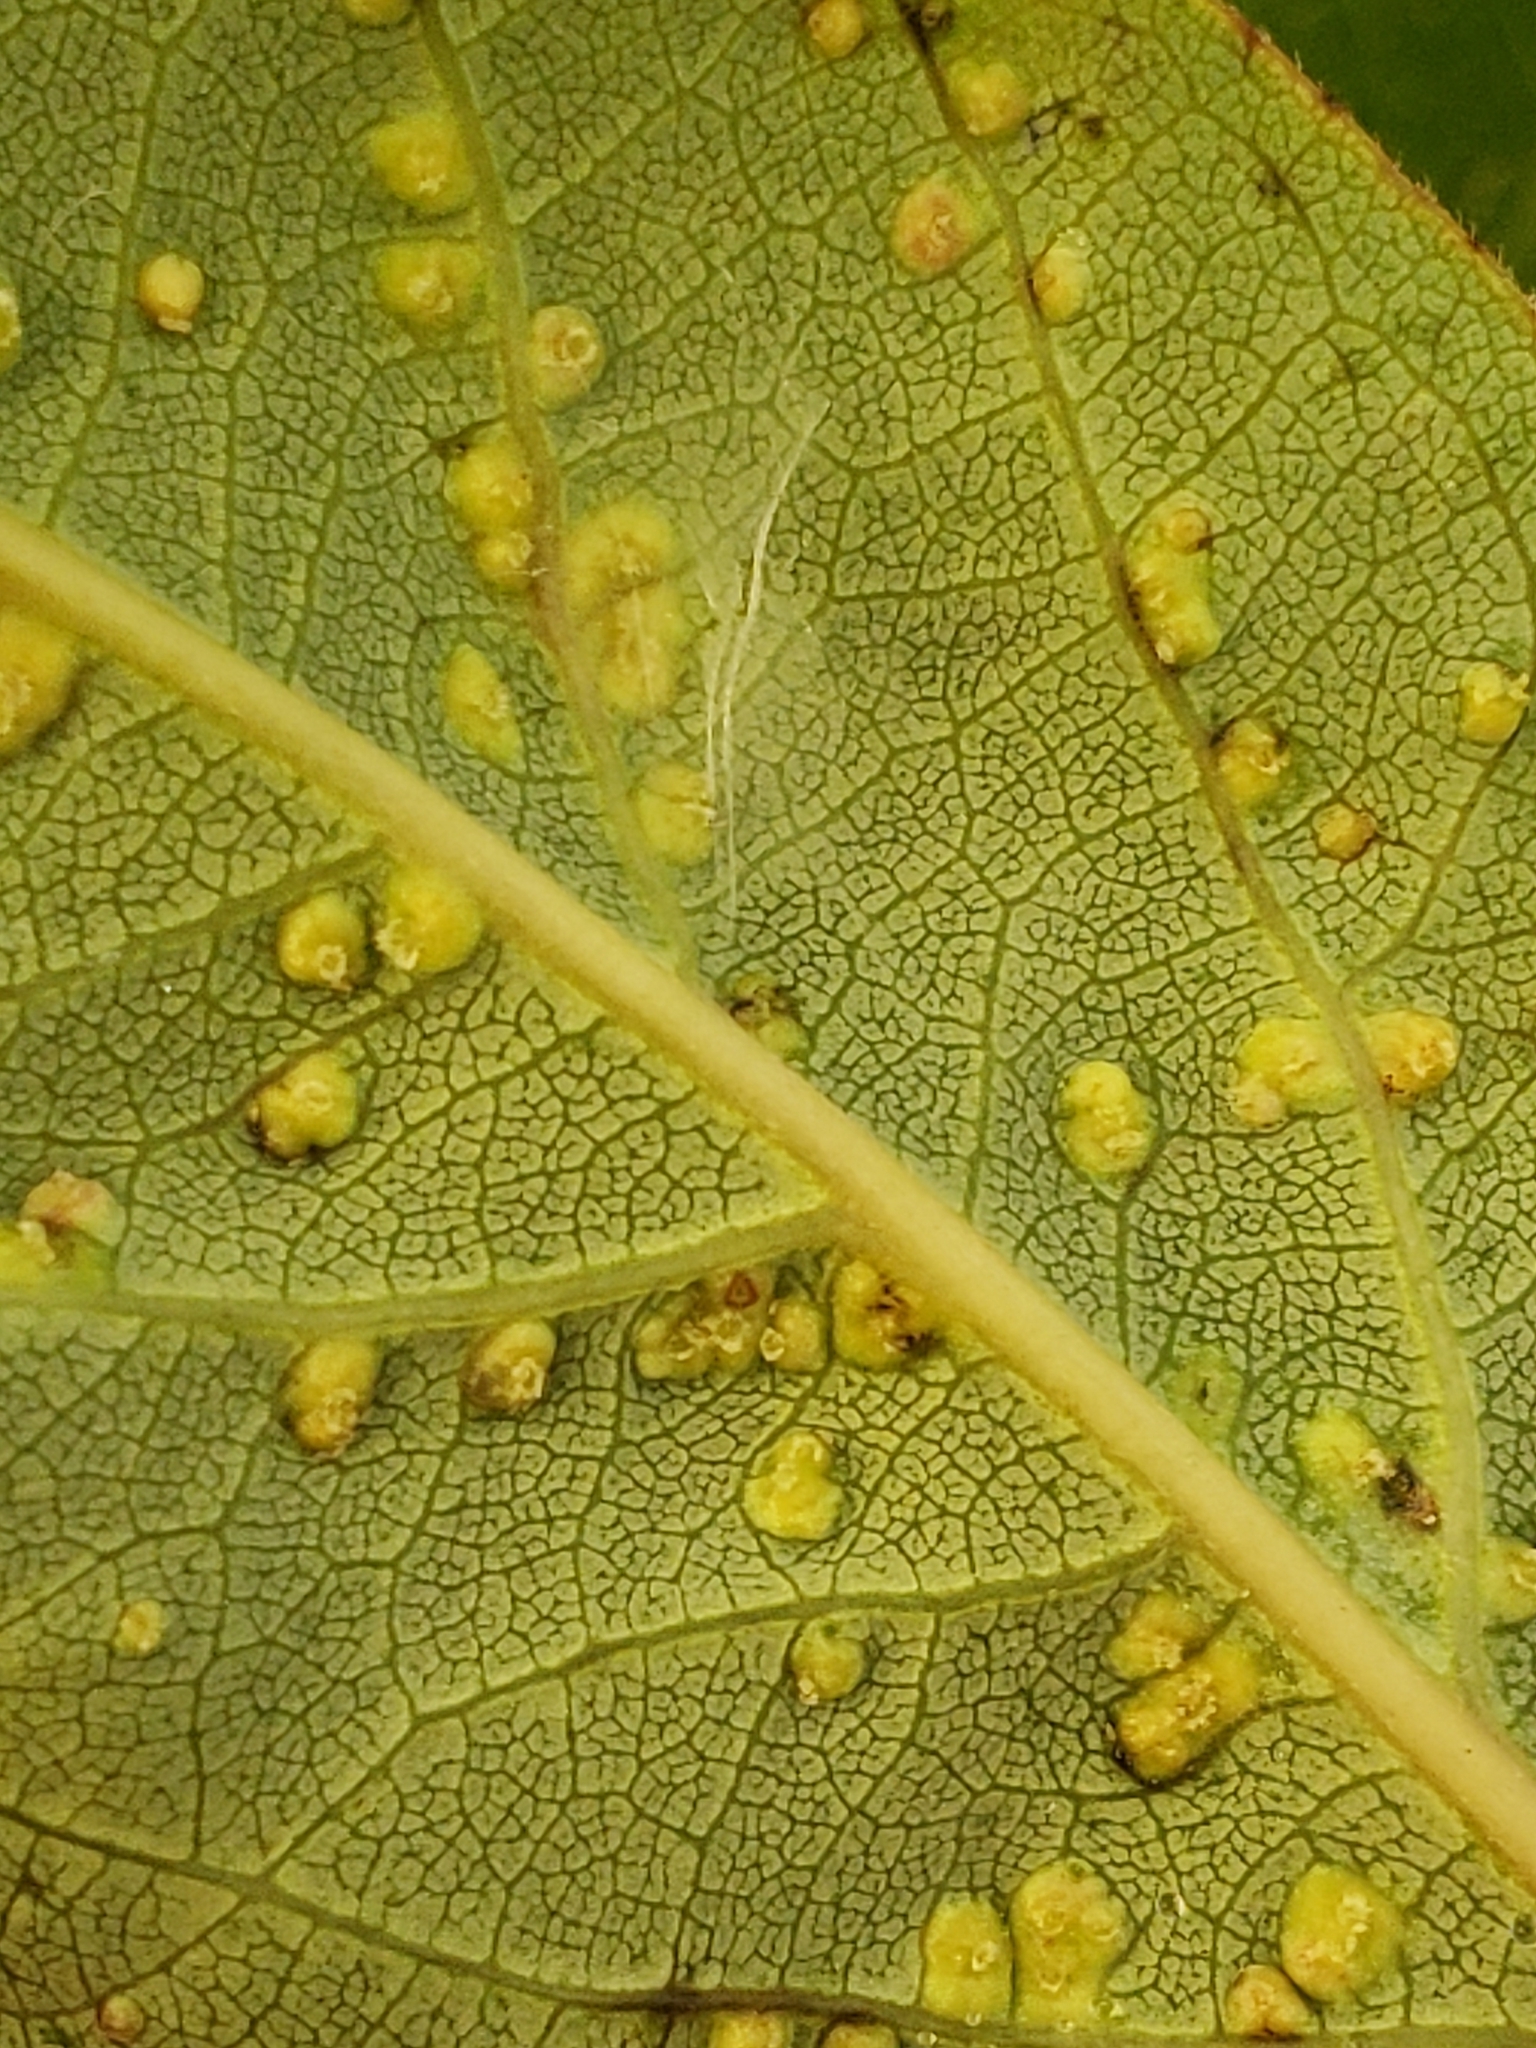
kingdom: Animalia
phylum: Arthropoda
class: Arachnida
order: Trombidiformes
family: Eriophyidae
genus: Aceria
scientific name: Aceria
